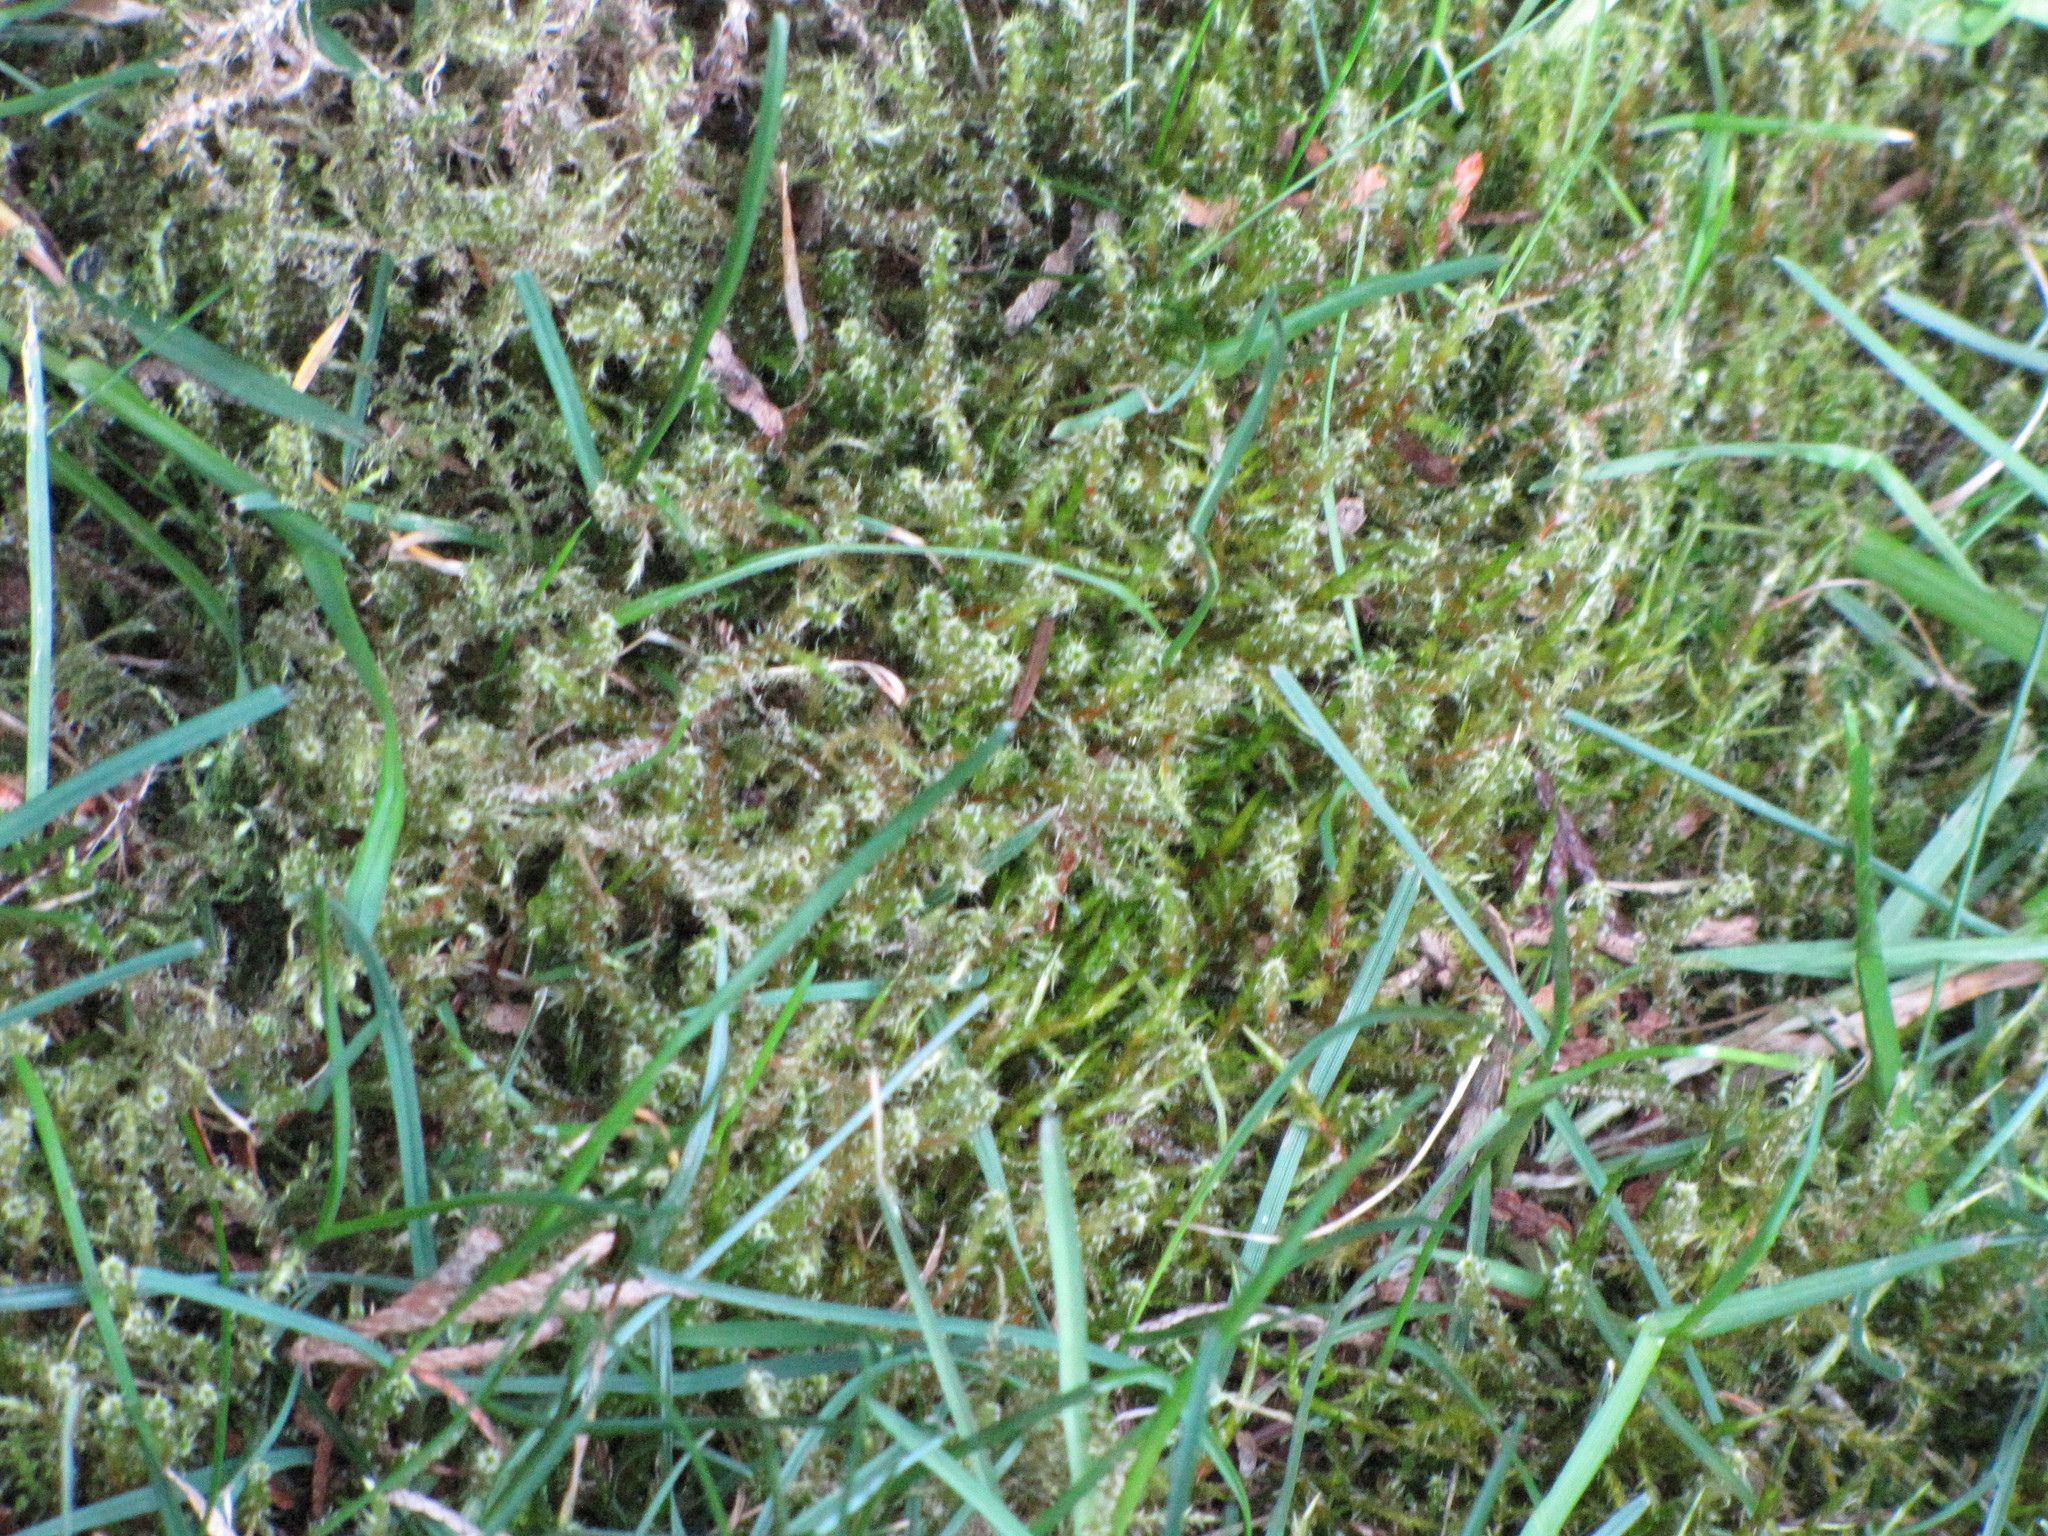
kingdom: Plantae
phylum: Bryophyta
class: Bryopsida
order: Hypnales
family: Hylocomiaceae
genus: Rhytidiadelphus
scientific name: Rhytidiadelphus squarrosus
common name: Springy turf-moss
